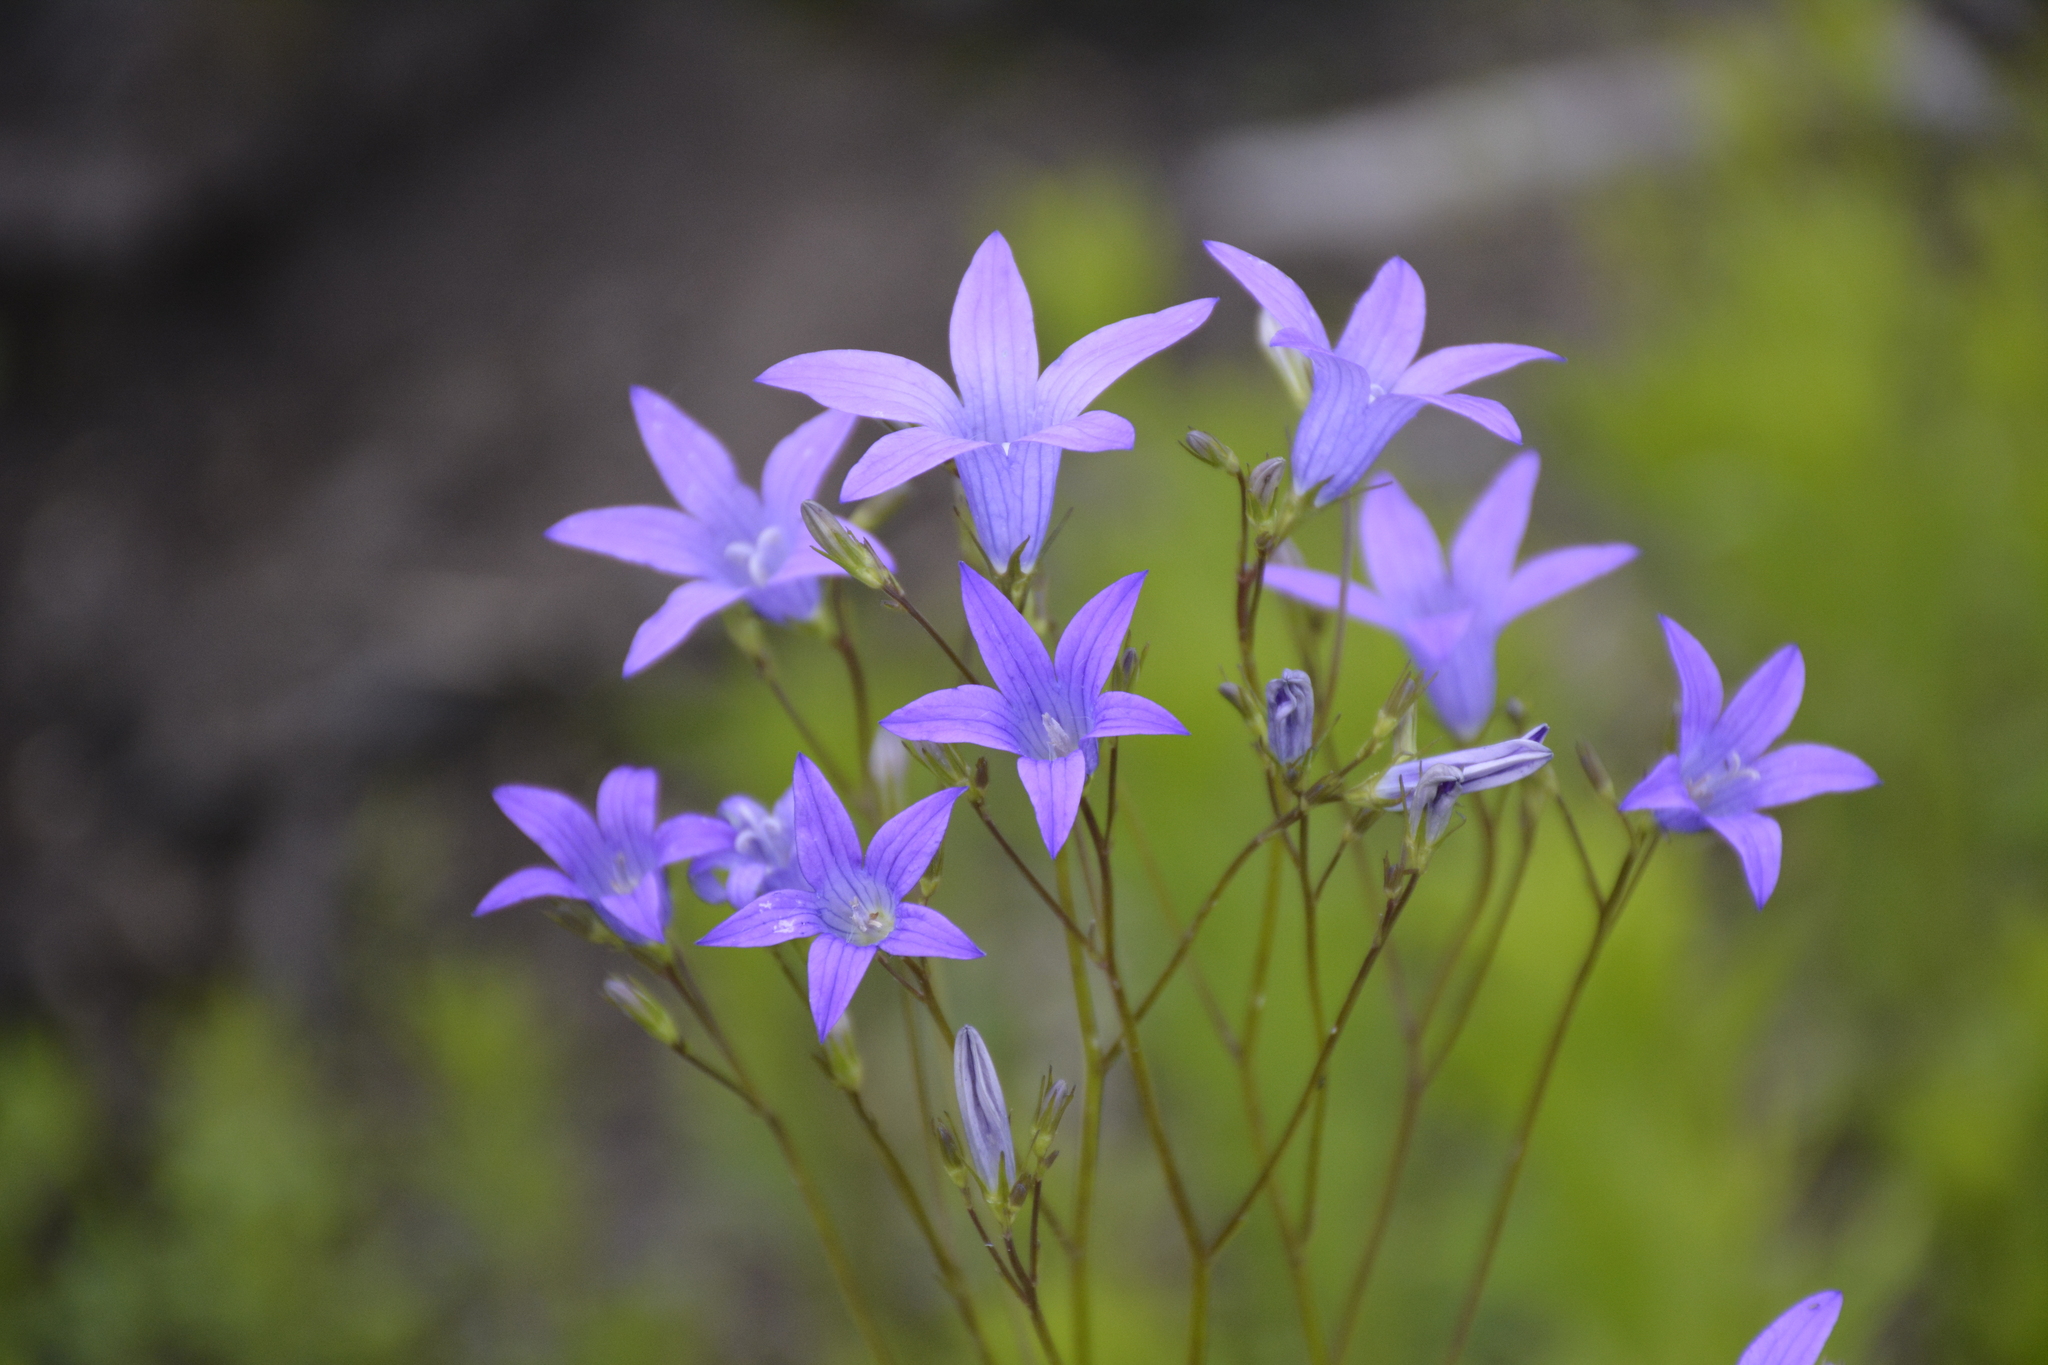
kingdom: Plantae
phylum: Tracheophyta
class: Magnoliopsida
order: Asterales
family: Campanulaceae
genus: Campanula
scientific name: Campanula patula
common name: Spreading bellflower
